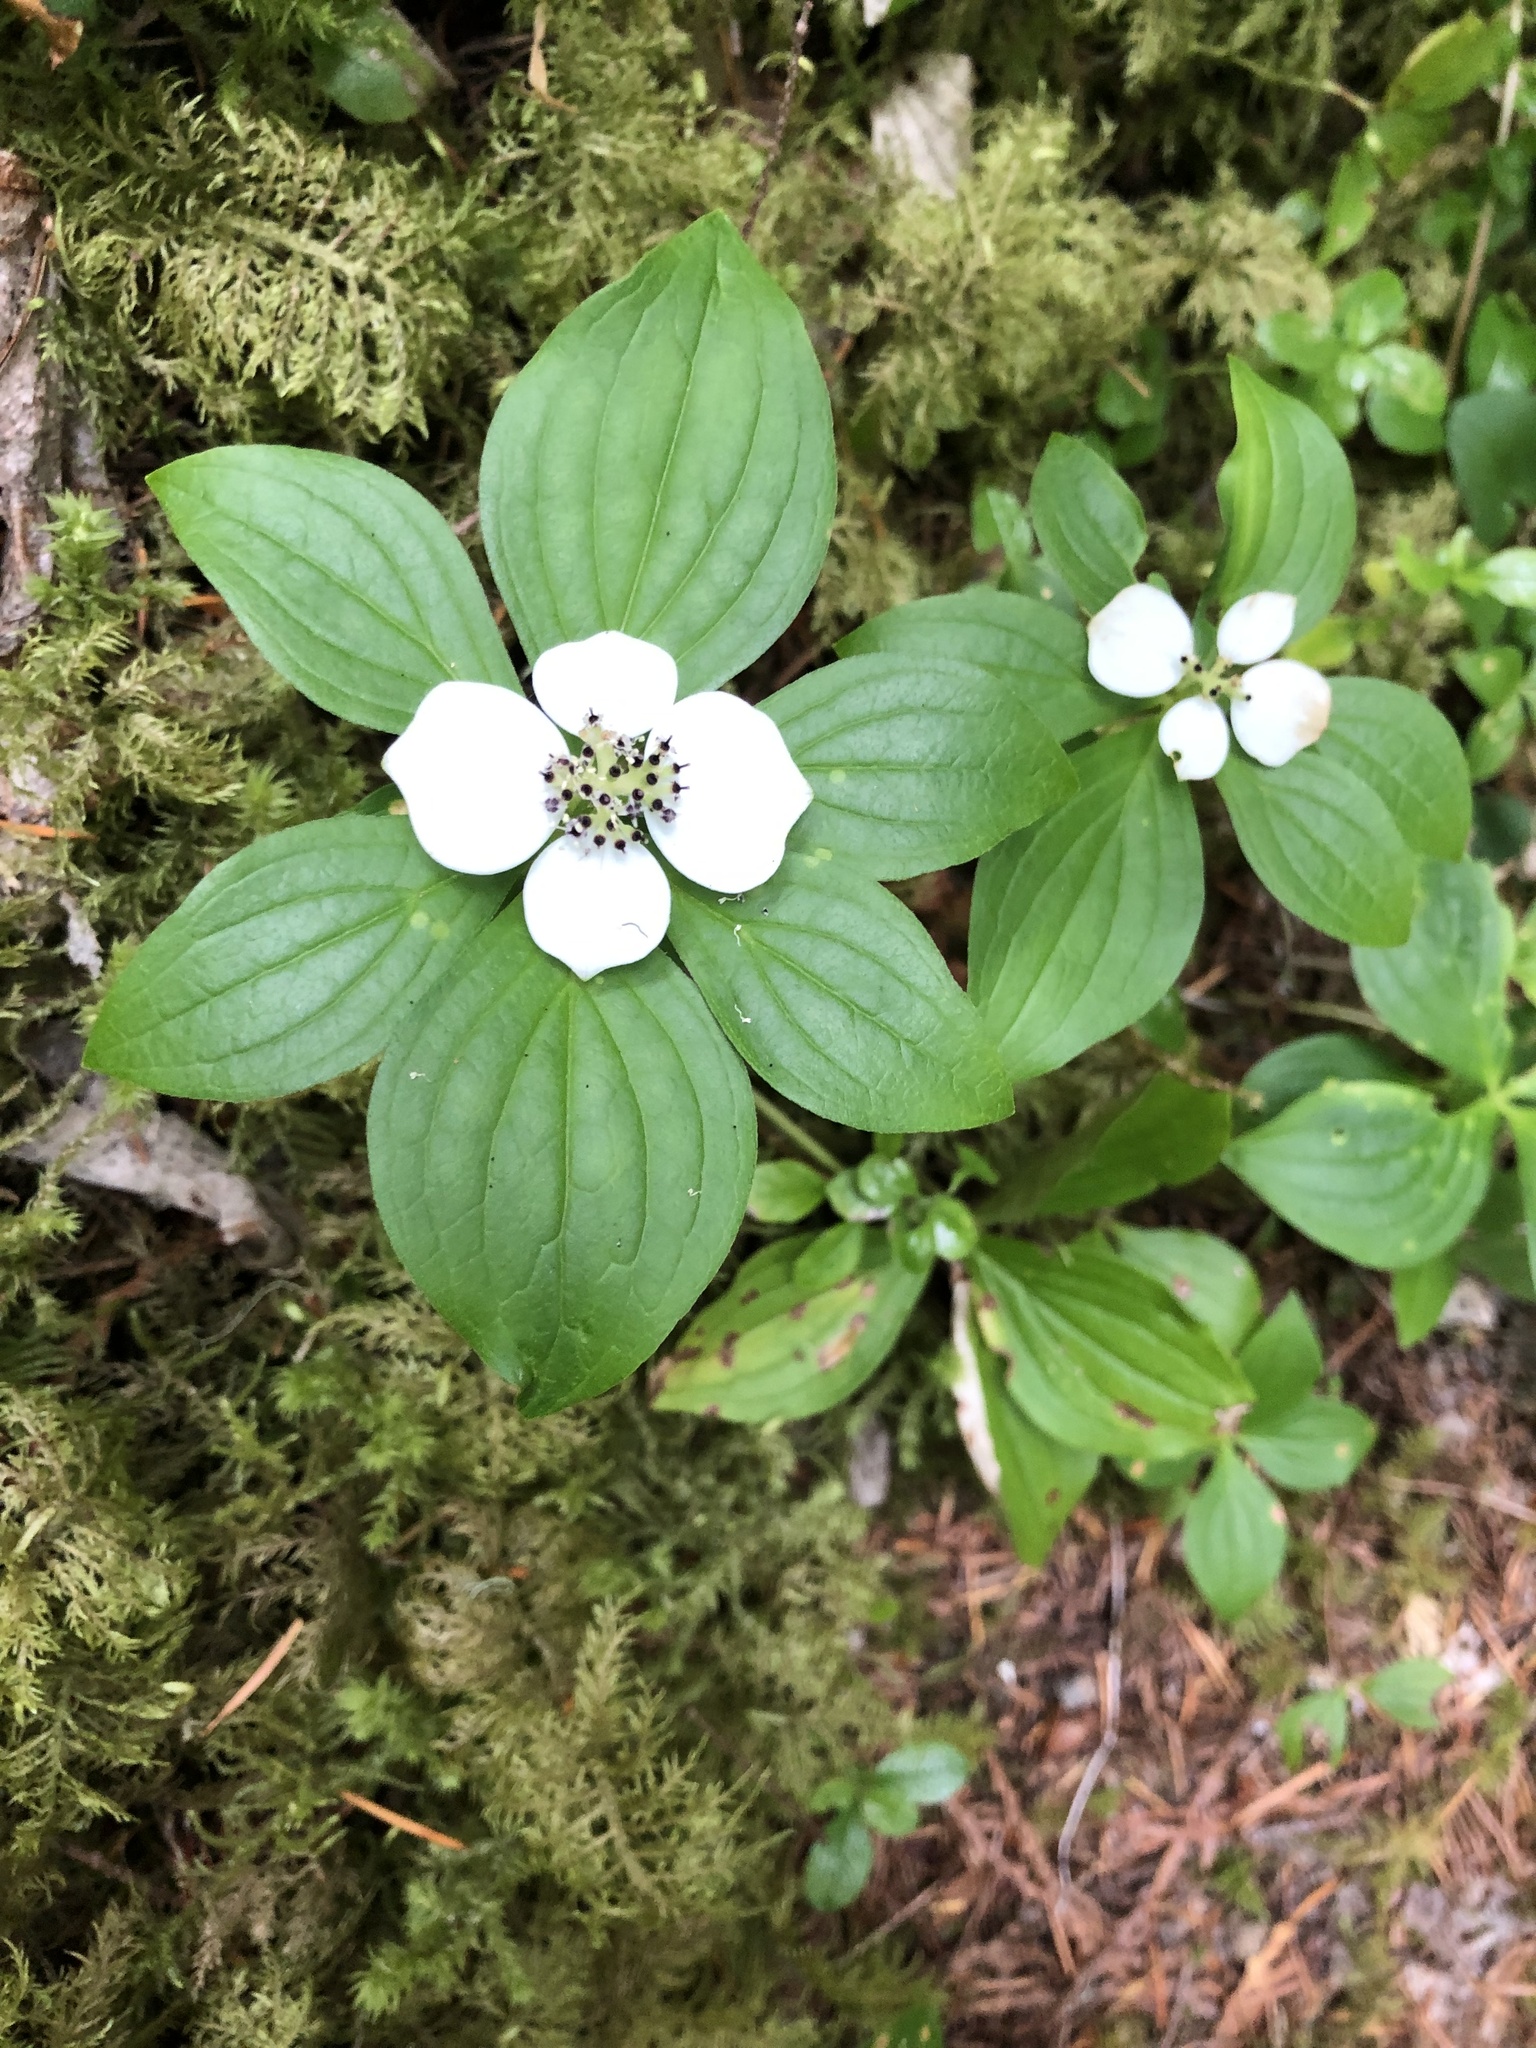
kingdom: Plantae
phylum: Tracheophyta
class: Magnoliopsida
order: Cornales
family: Cornaceae
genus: Cornus
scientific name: Cornus unalaschkensis
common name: Alaska bunchberry
